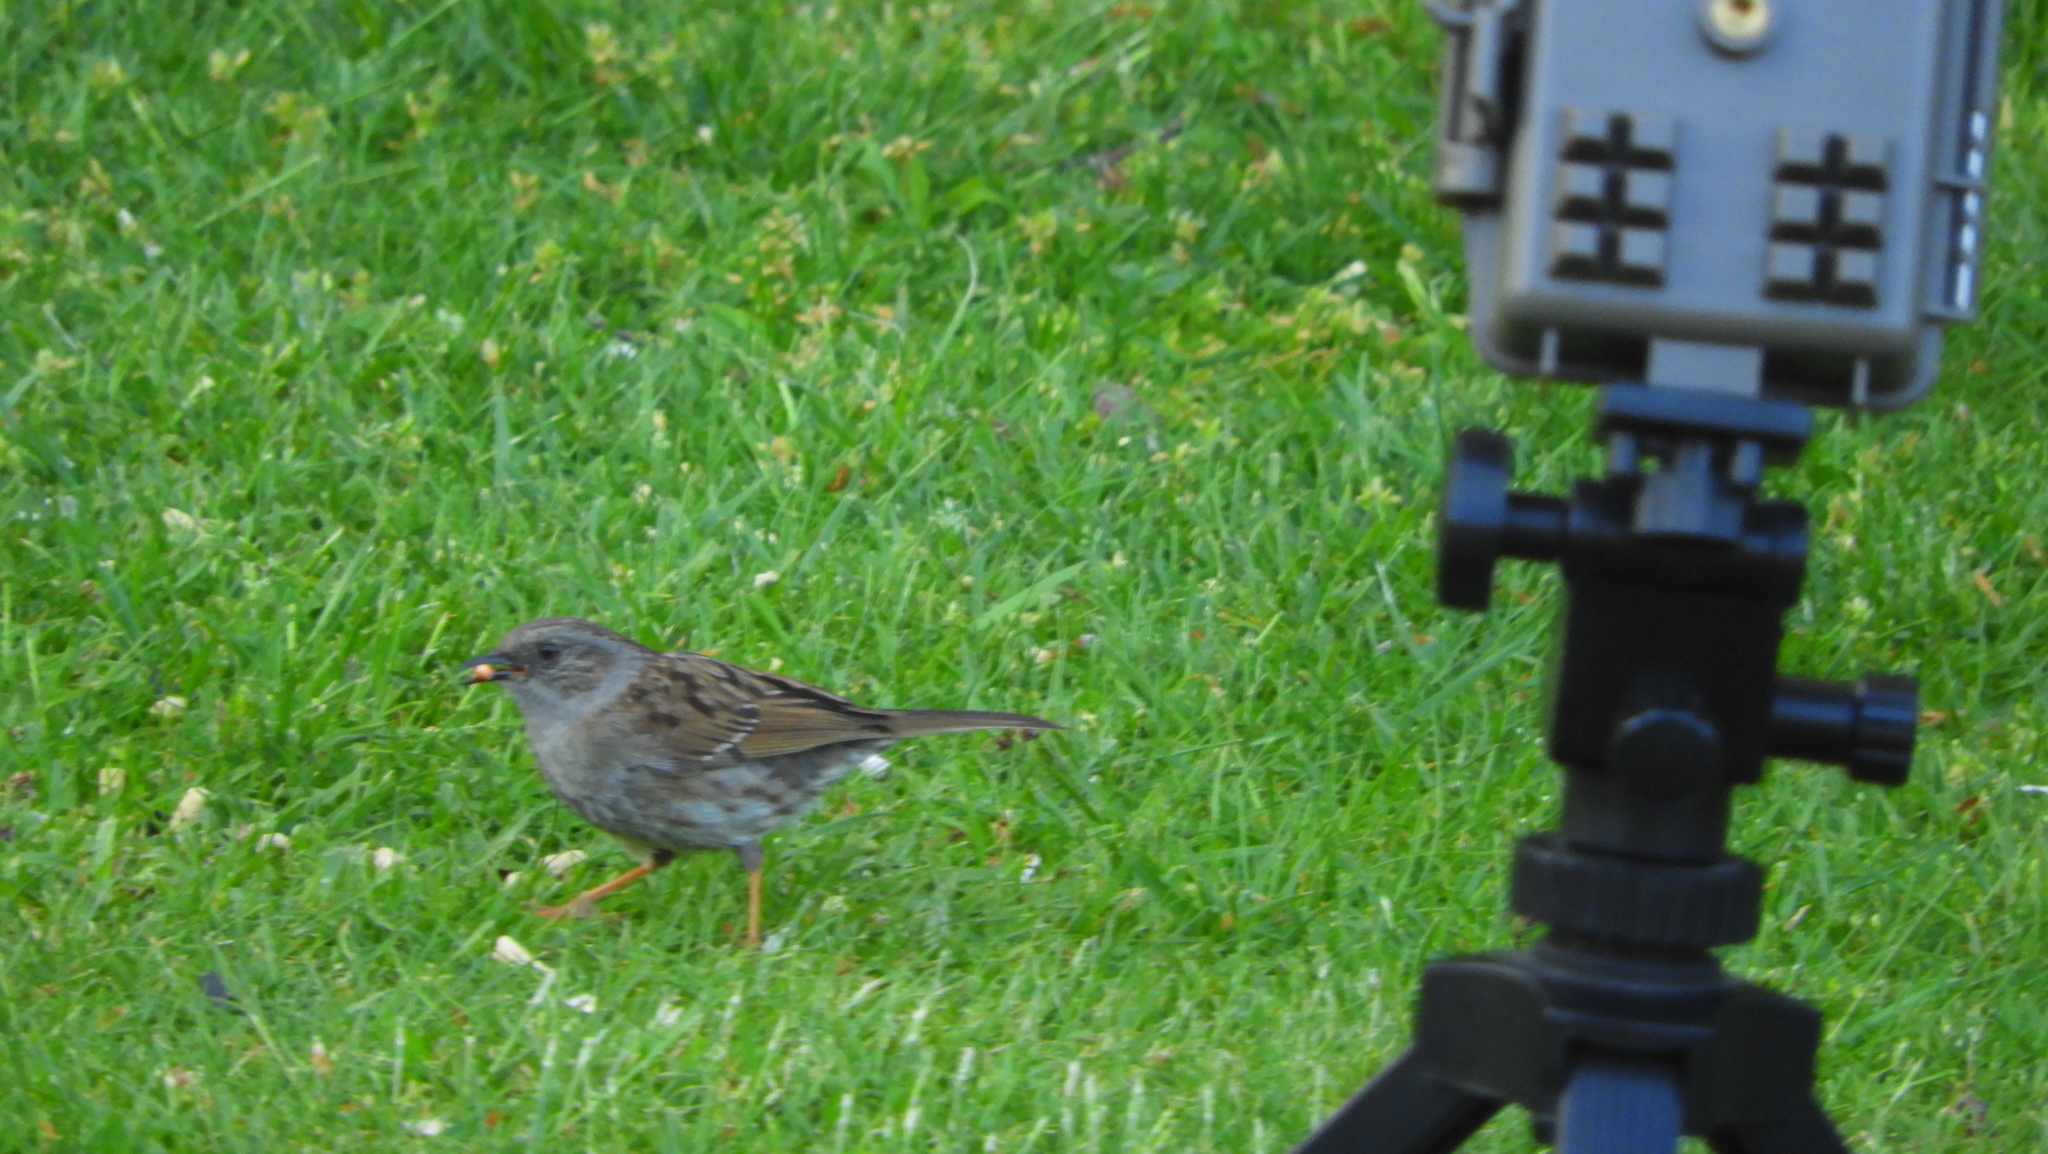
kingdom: Animalia
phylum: Chordata
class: Aves
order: Passeriformes
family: Prunellidae
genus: Prunella
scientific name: Prunella modularis
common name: Dunnock
